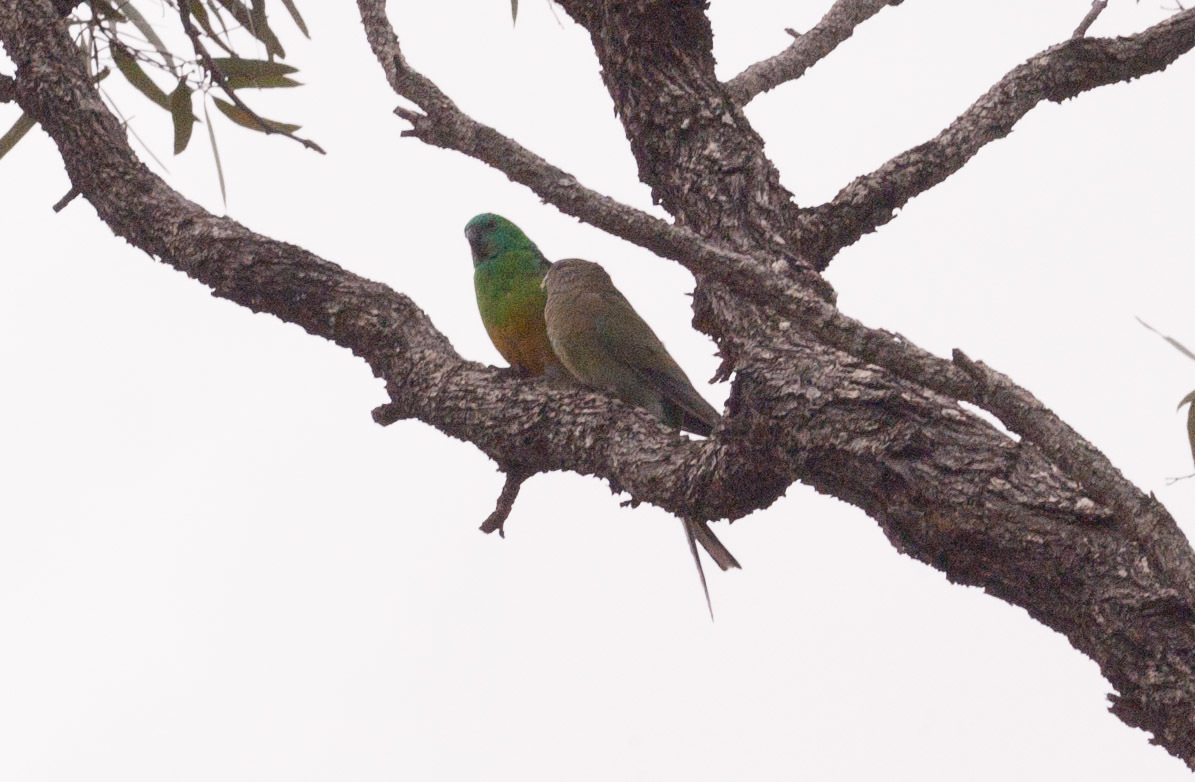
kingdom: Animalia
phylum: Chordata
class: Aves
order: Psittaciformes
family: Psittacidae
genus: Psephotus
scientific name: Psephotus haematonotus
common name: Red-rumped parrot
